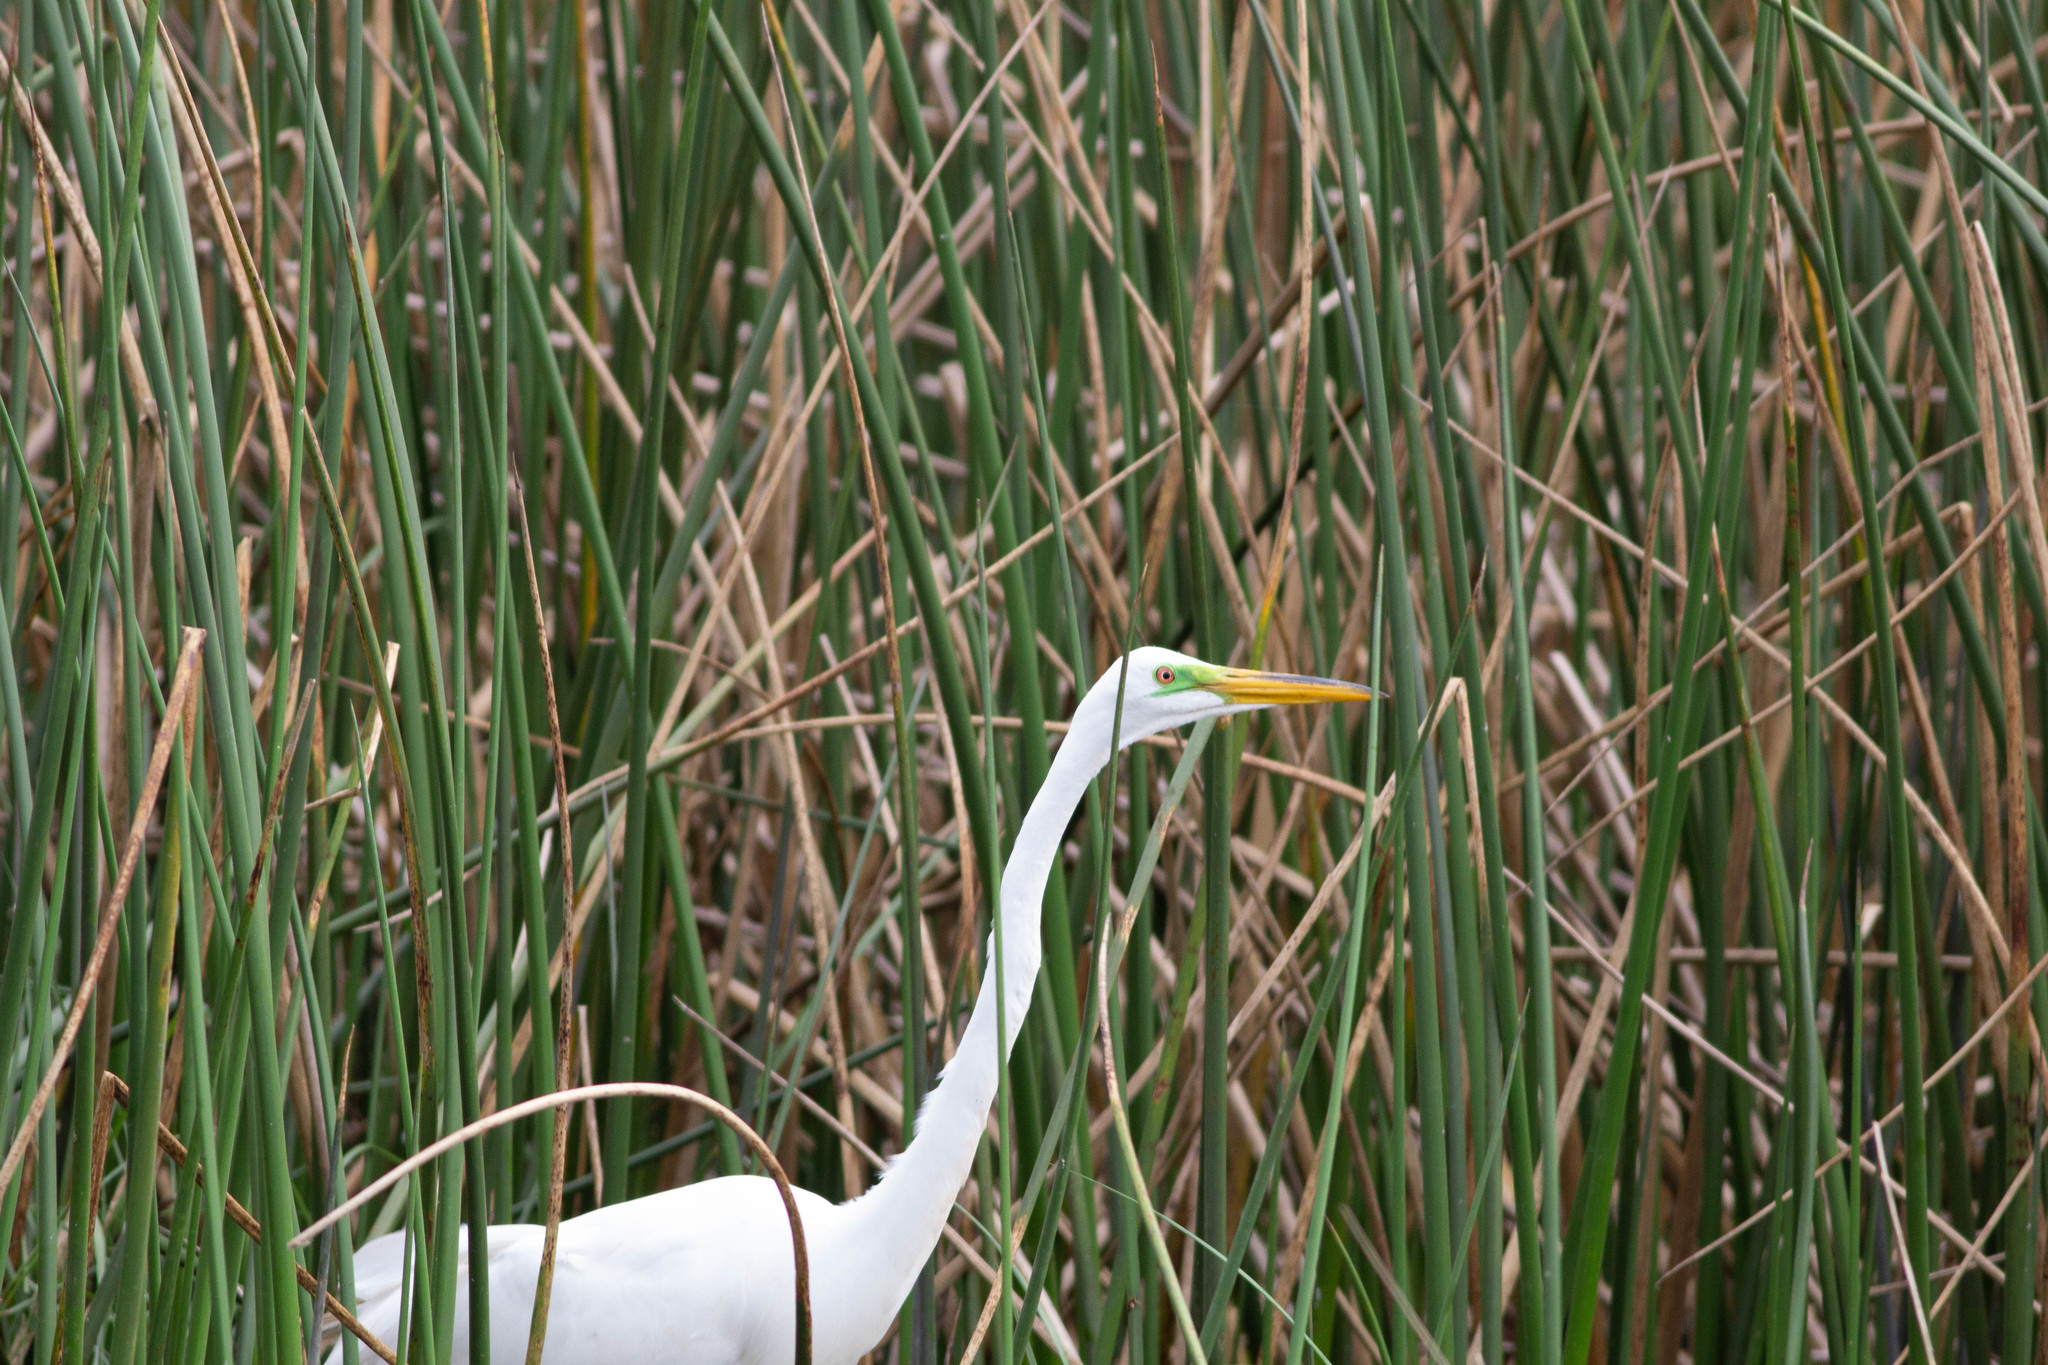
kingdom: Animalia
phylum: Chordata
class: Aves
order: Pelecaniformes
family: Ardeidae
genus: Ardea
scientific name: Ardea alba
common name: Great egret
